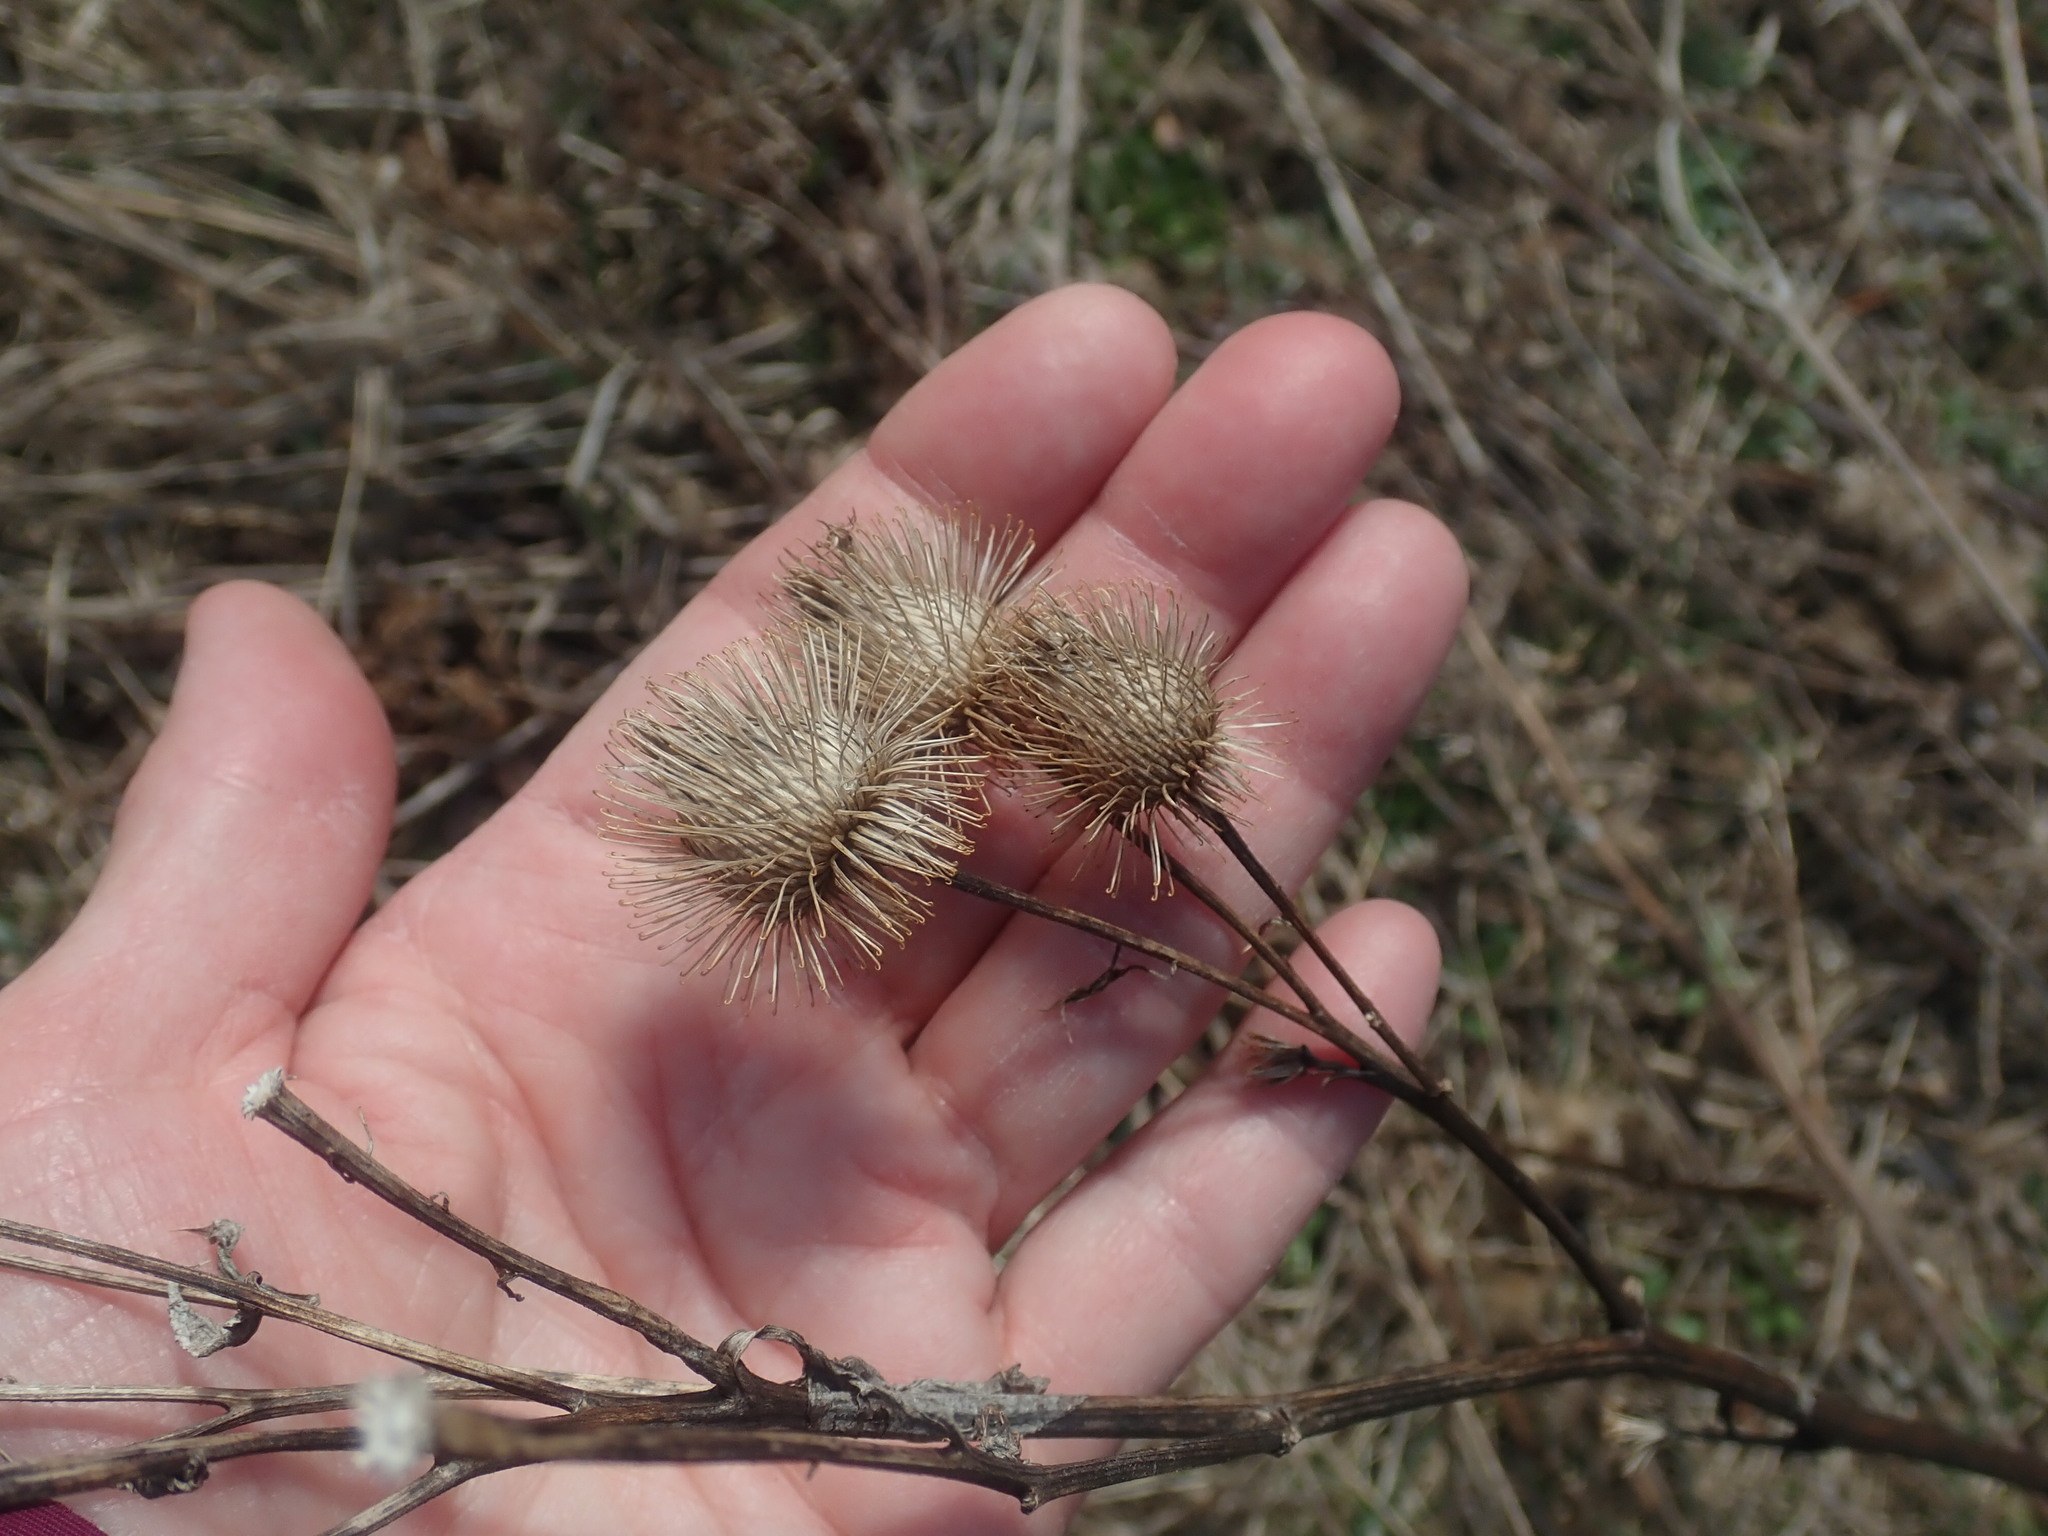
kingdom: Plantae
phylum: Tracheophyta
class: Magnoliopsida
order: Asterales
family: Asteraceae
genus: Arctium
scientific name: Arctium lappa
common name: Greater burdock
